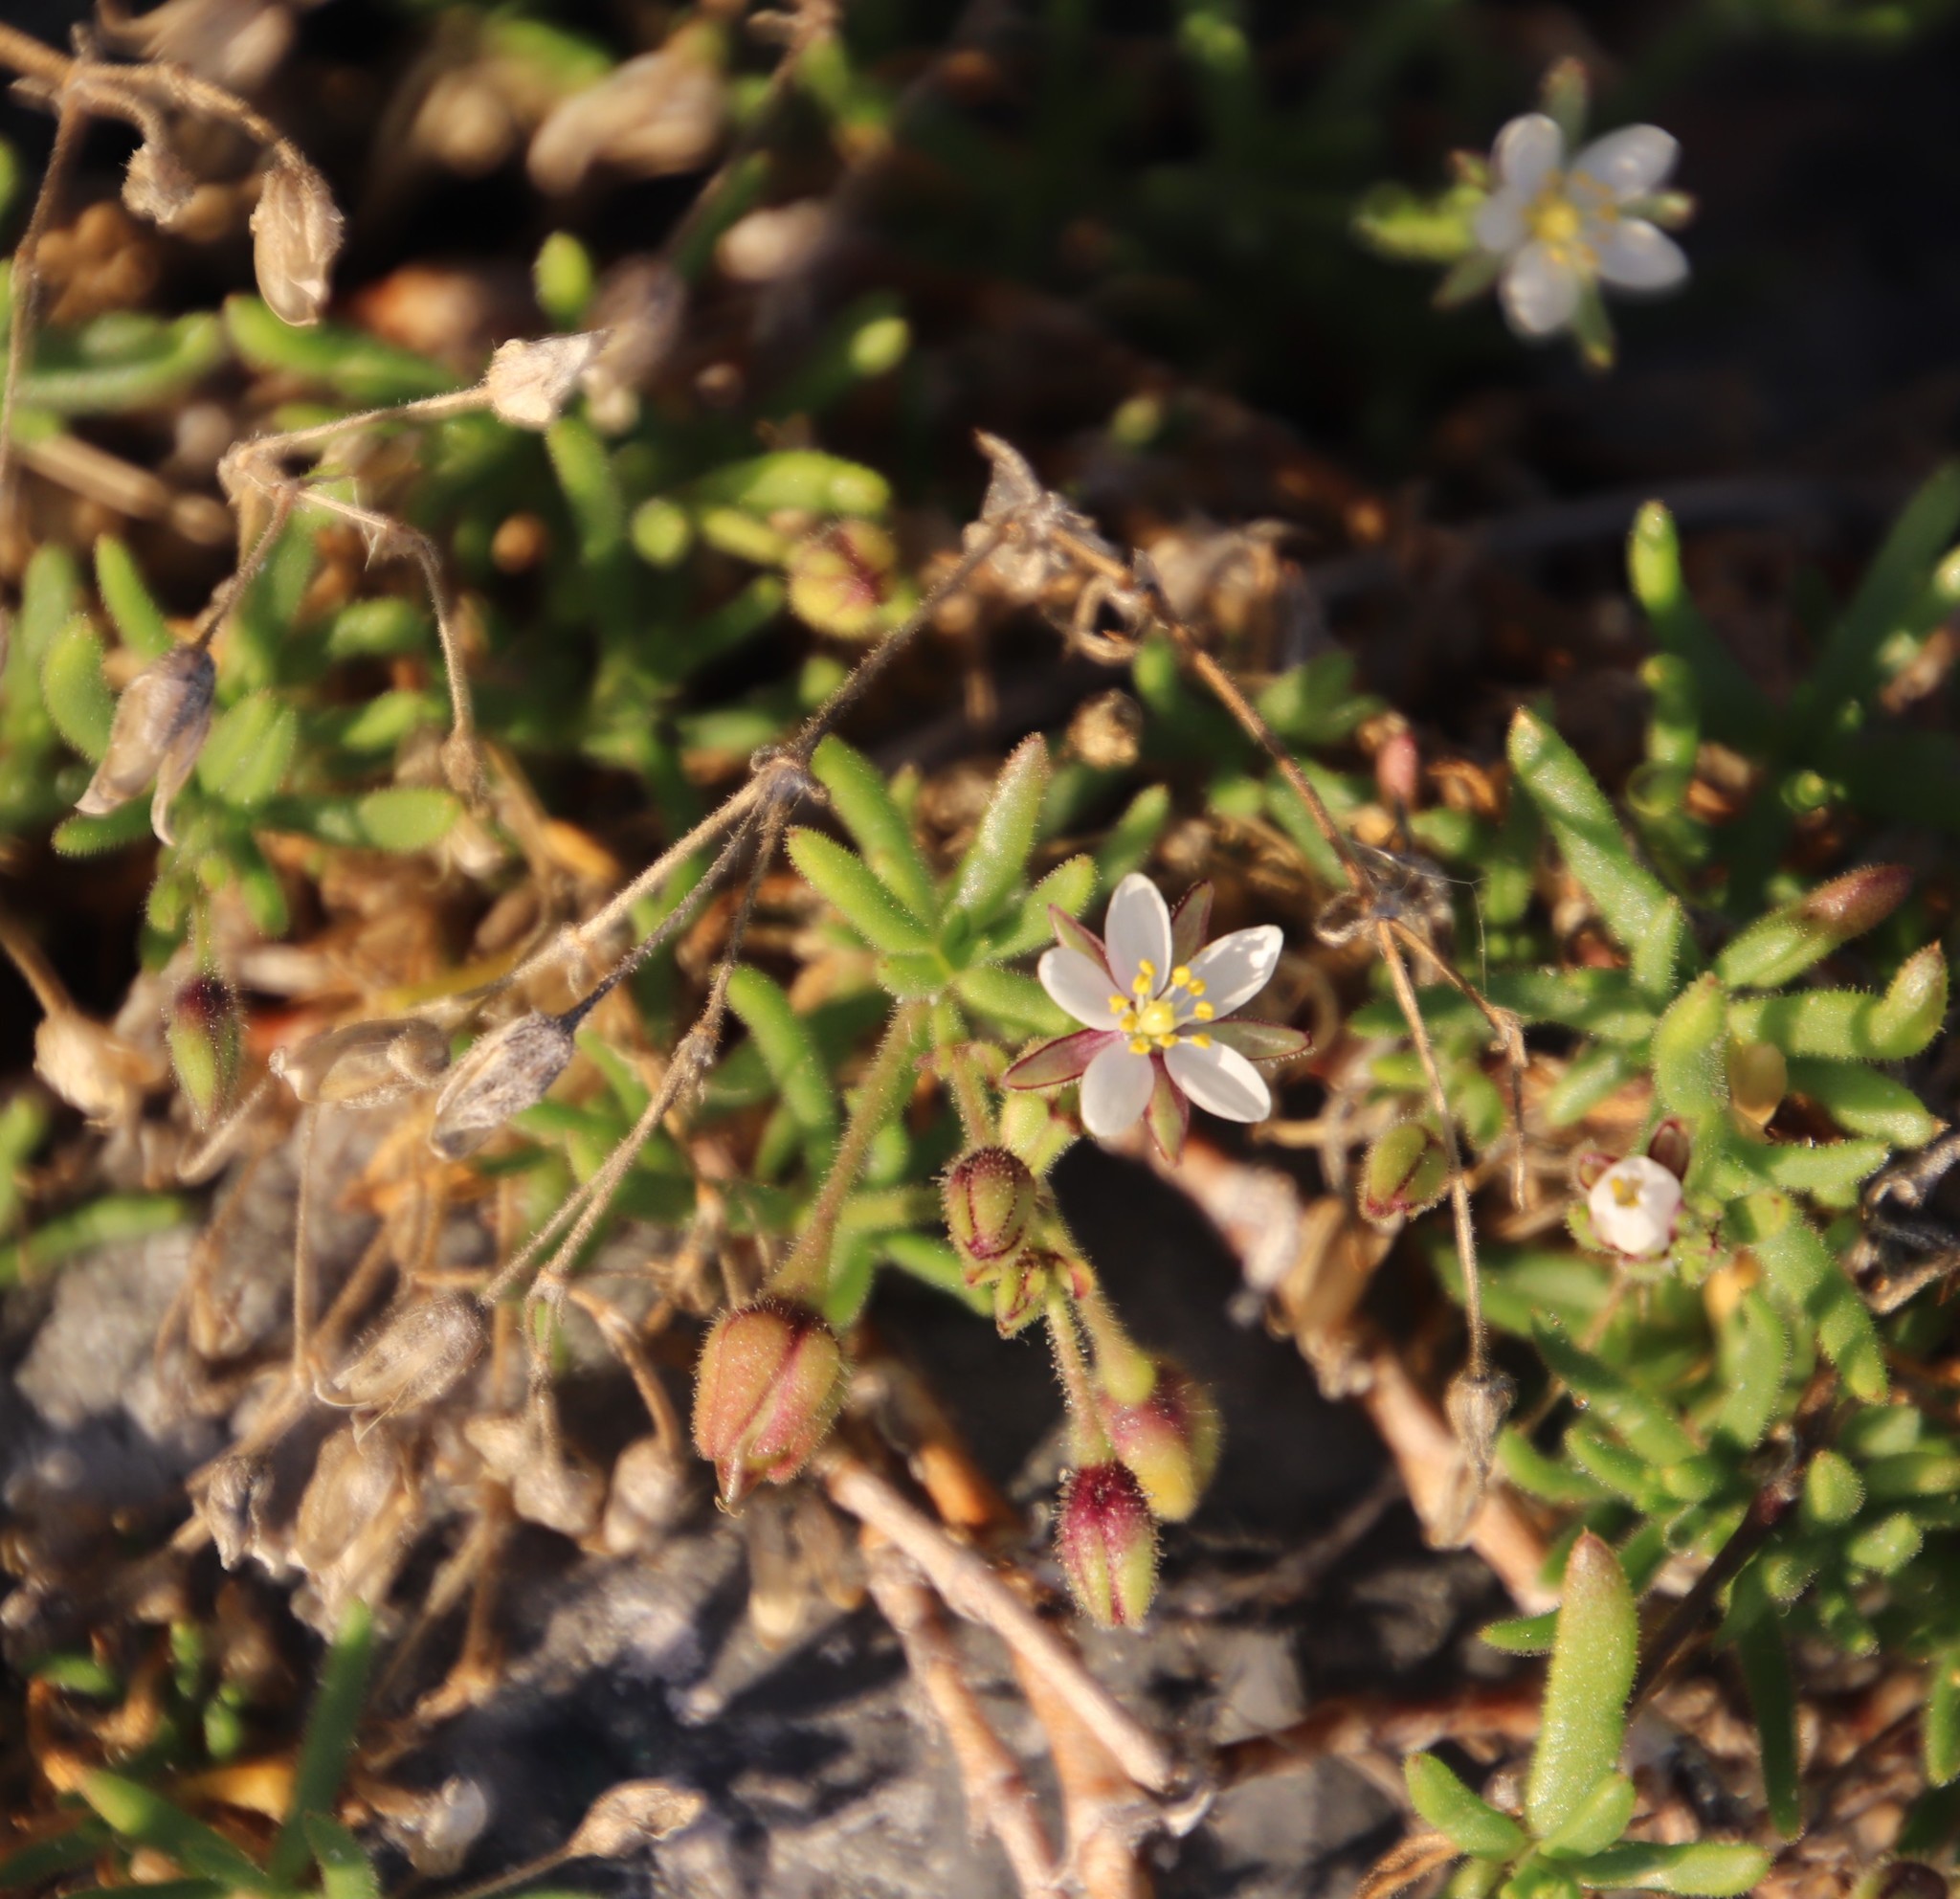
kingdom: Plantae
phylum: Tracheophyta
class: Magnoliopsida
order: Caryophyllales
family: Caryophyllaceae
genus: Spergularia
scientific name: Spergularia media
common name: Greater sea-spurrey
